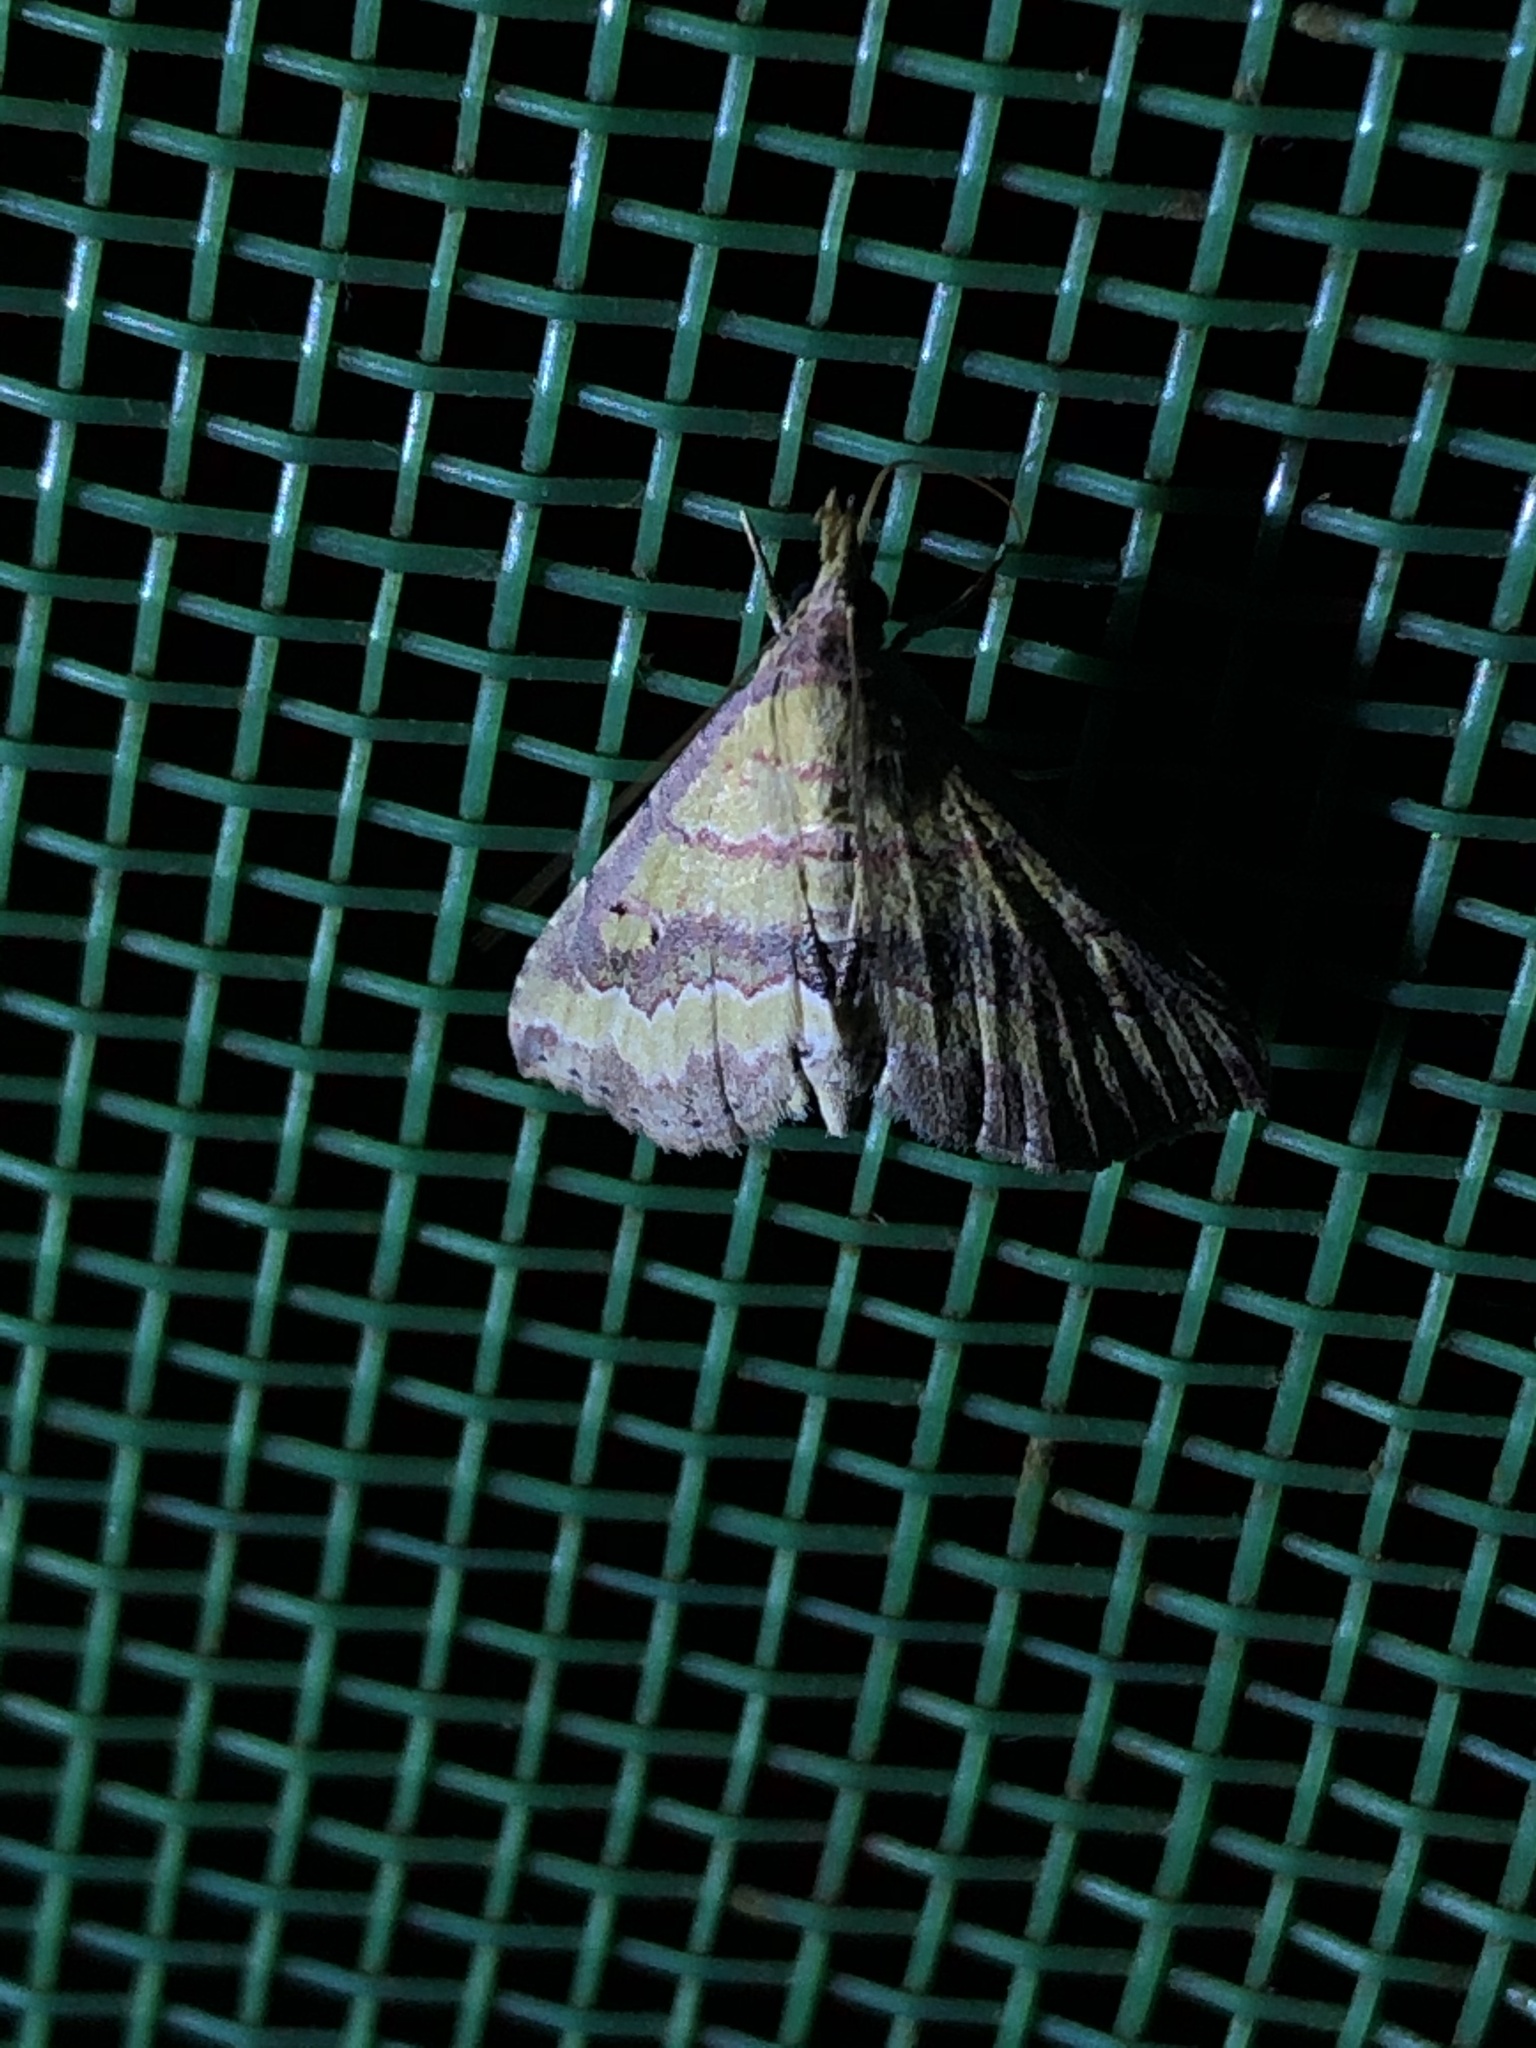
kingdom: Animalia
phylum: Arthropoda
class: Insecta
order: Lepidoptera
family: Erebidae
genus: Mursa
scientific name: Mursa phtisialis
